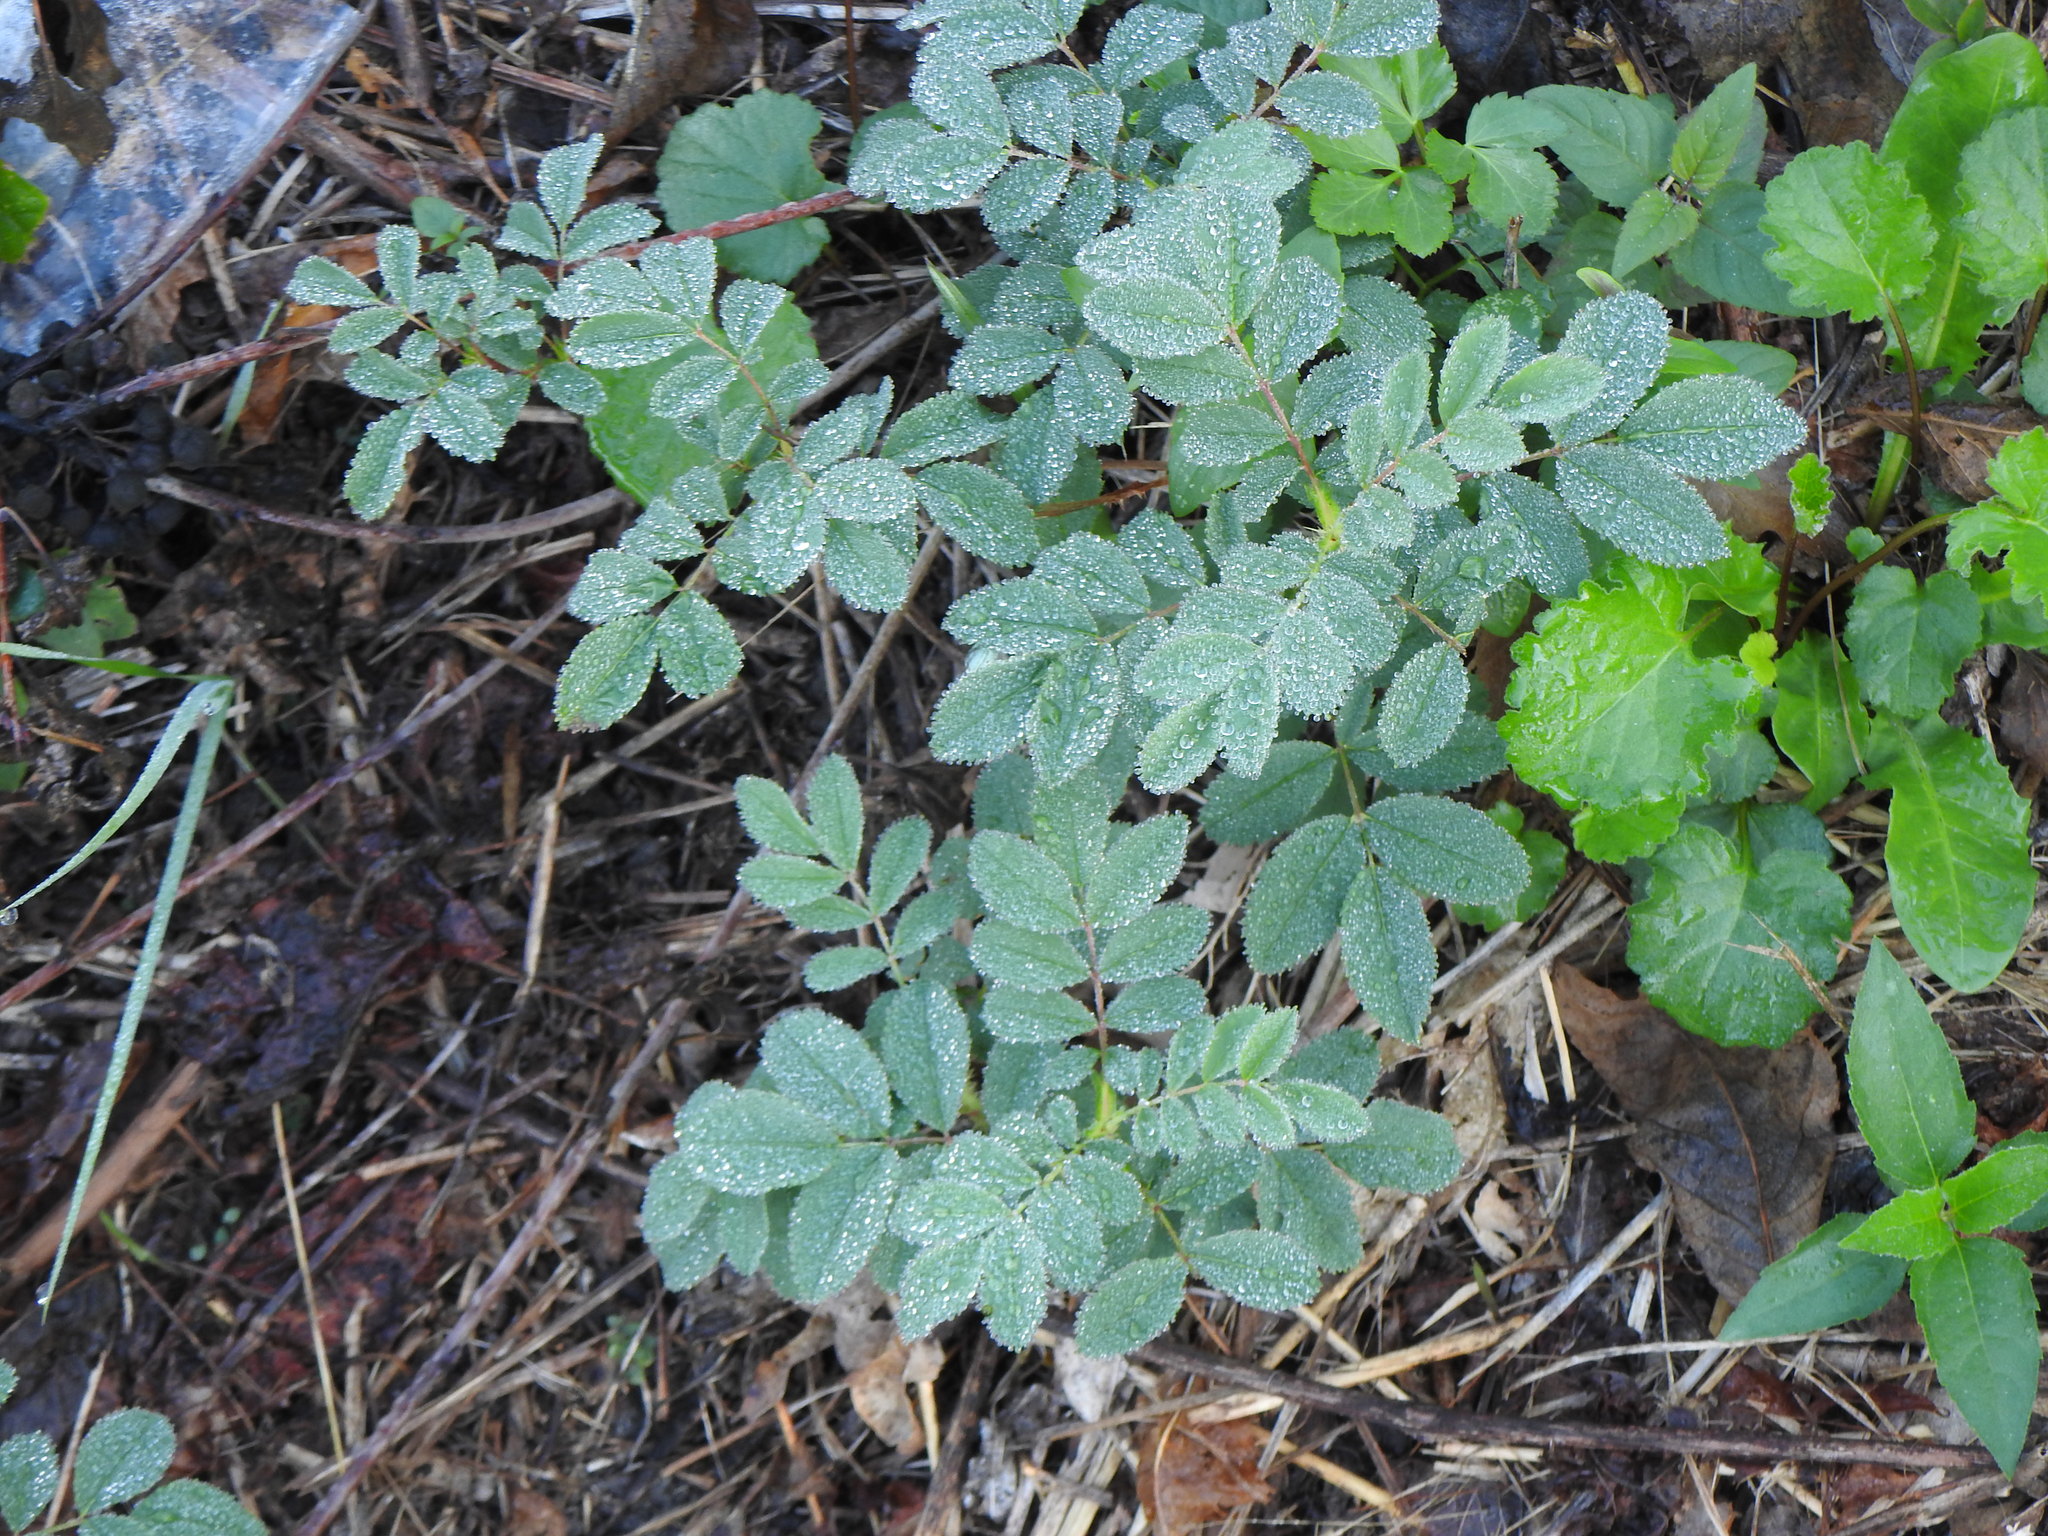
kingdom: Plantae
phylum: Tracheophyta
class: Magnoliopsida
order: Rosales
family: Rosaceae
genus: Rosa
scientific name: Rosa blanda
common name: Smooth rose
